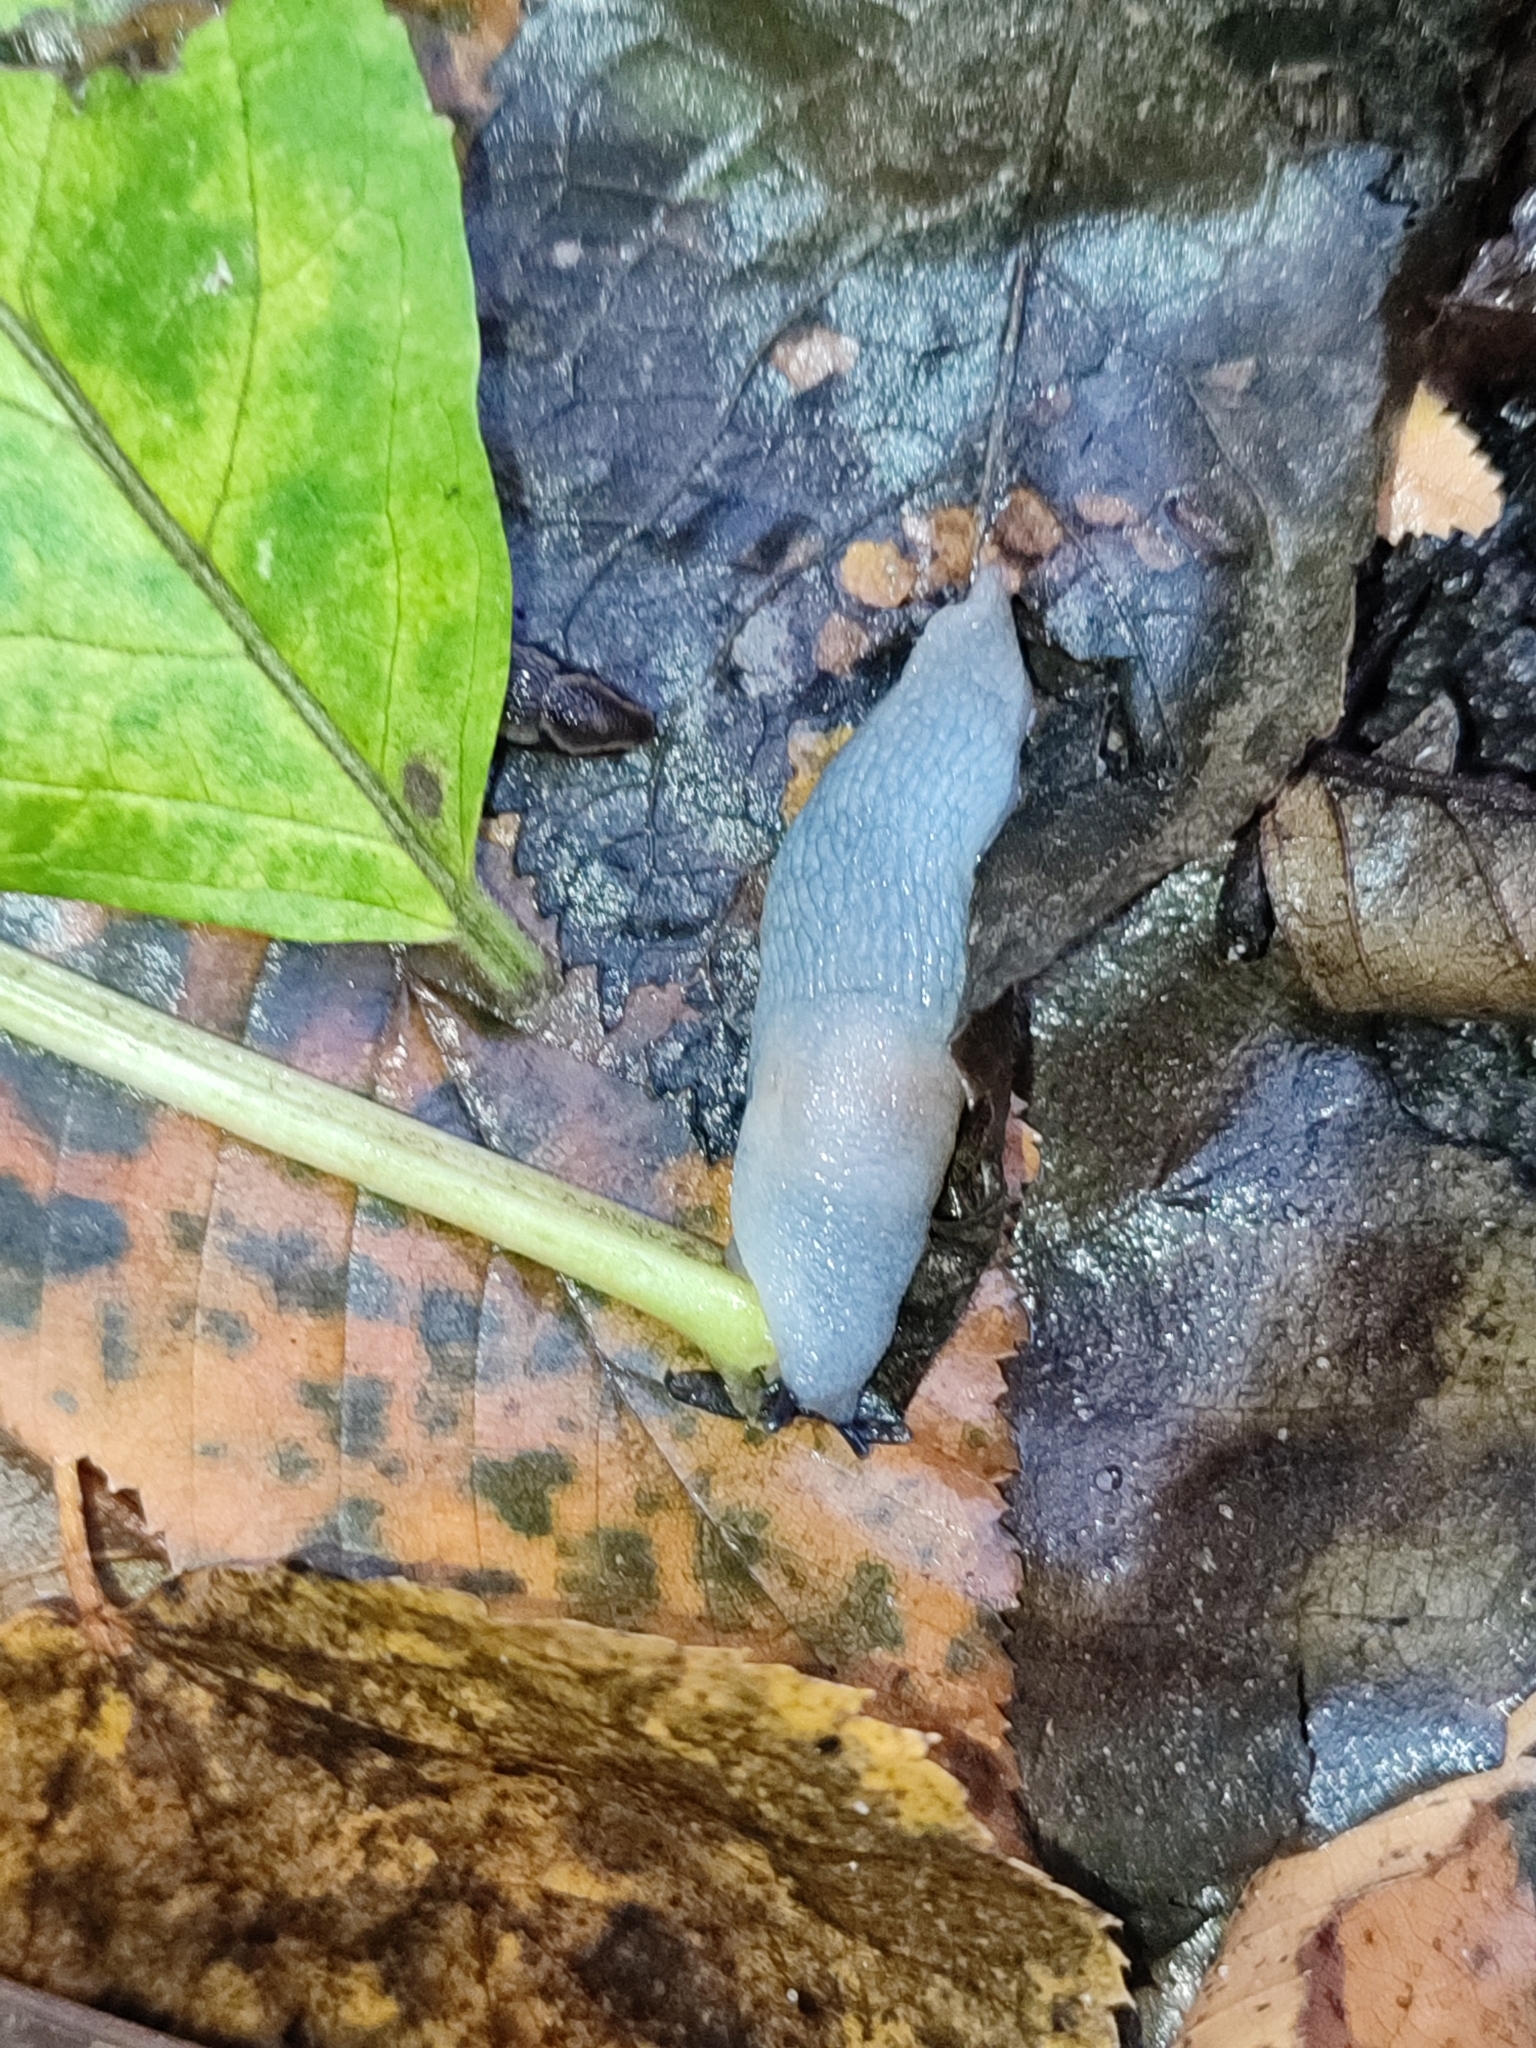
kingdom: Animalia
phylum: Mollusca
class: Gastropoda
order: Stylommatophora
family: Agriolimacidae
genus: Krynickillus
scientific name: Krynickillus melanocephalus
